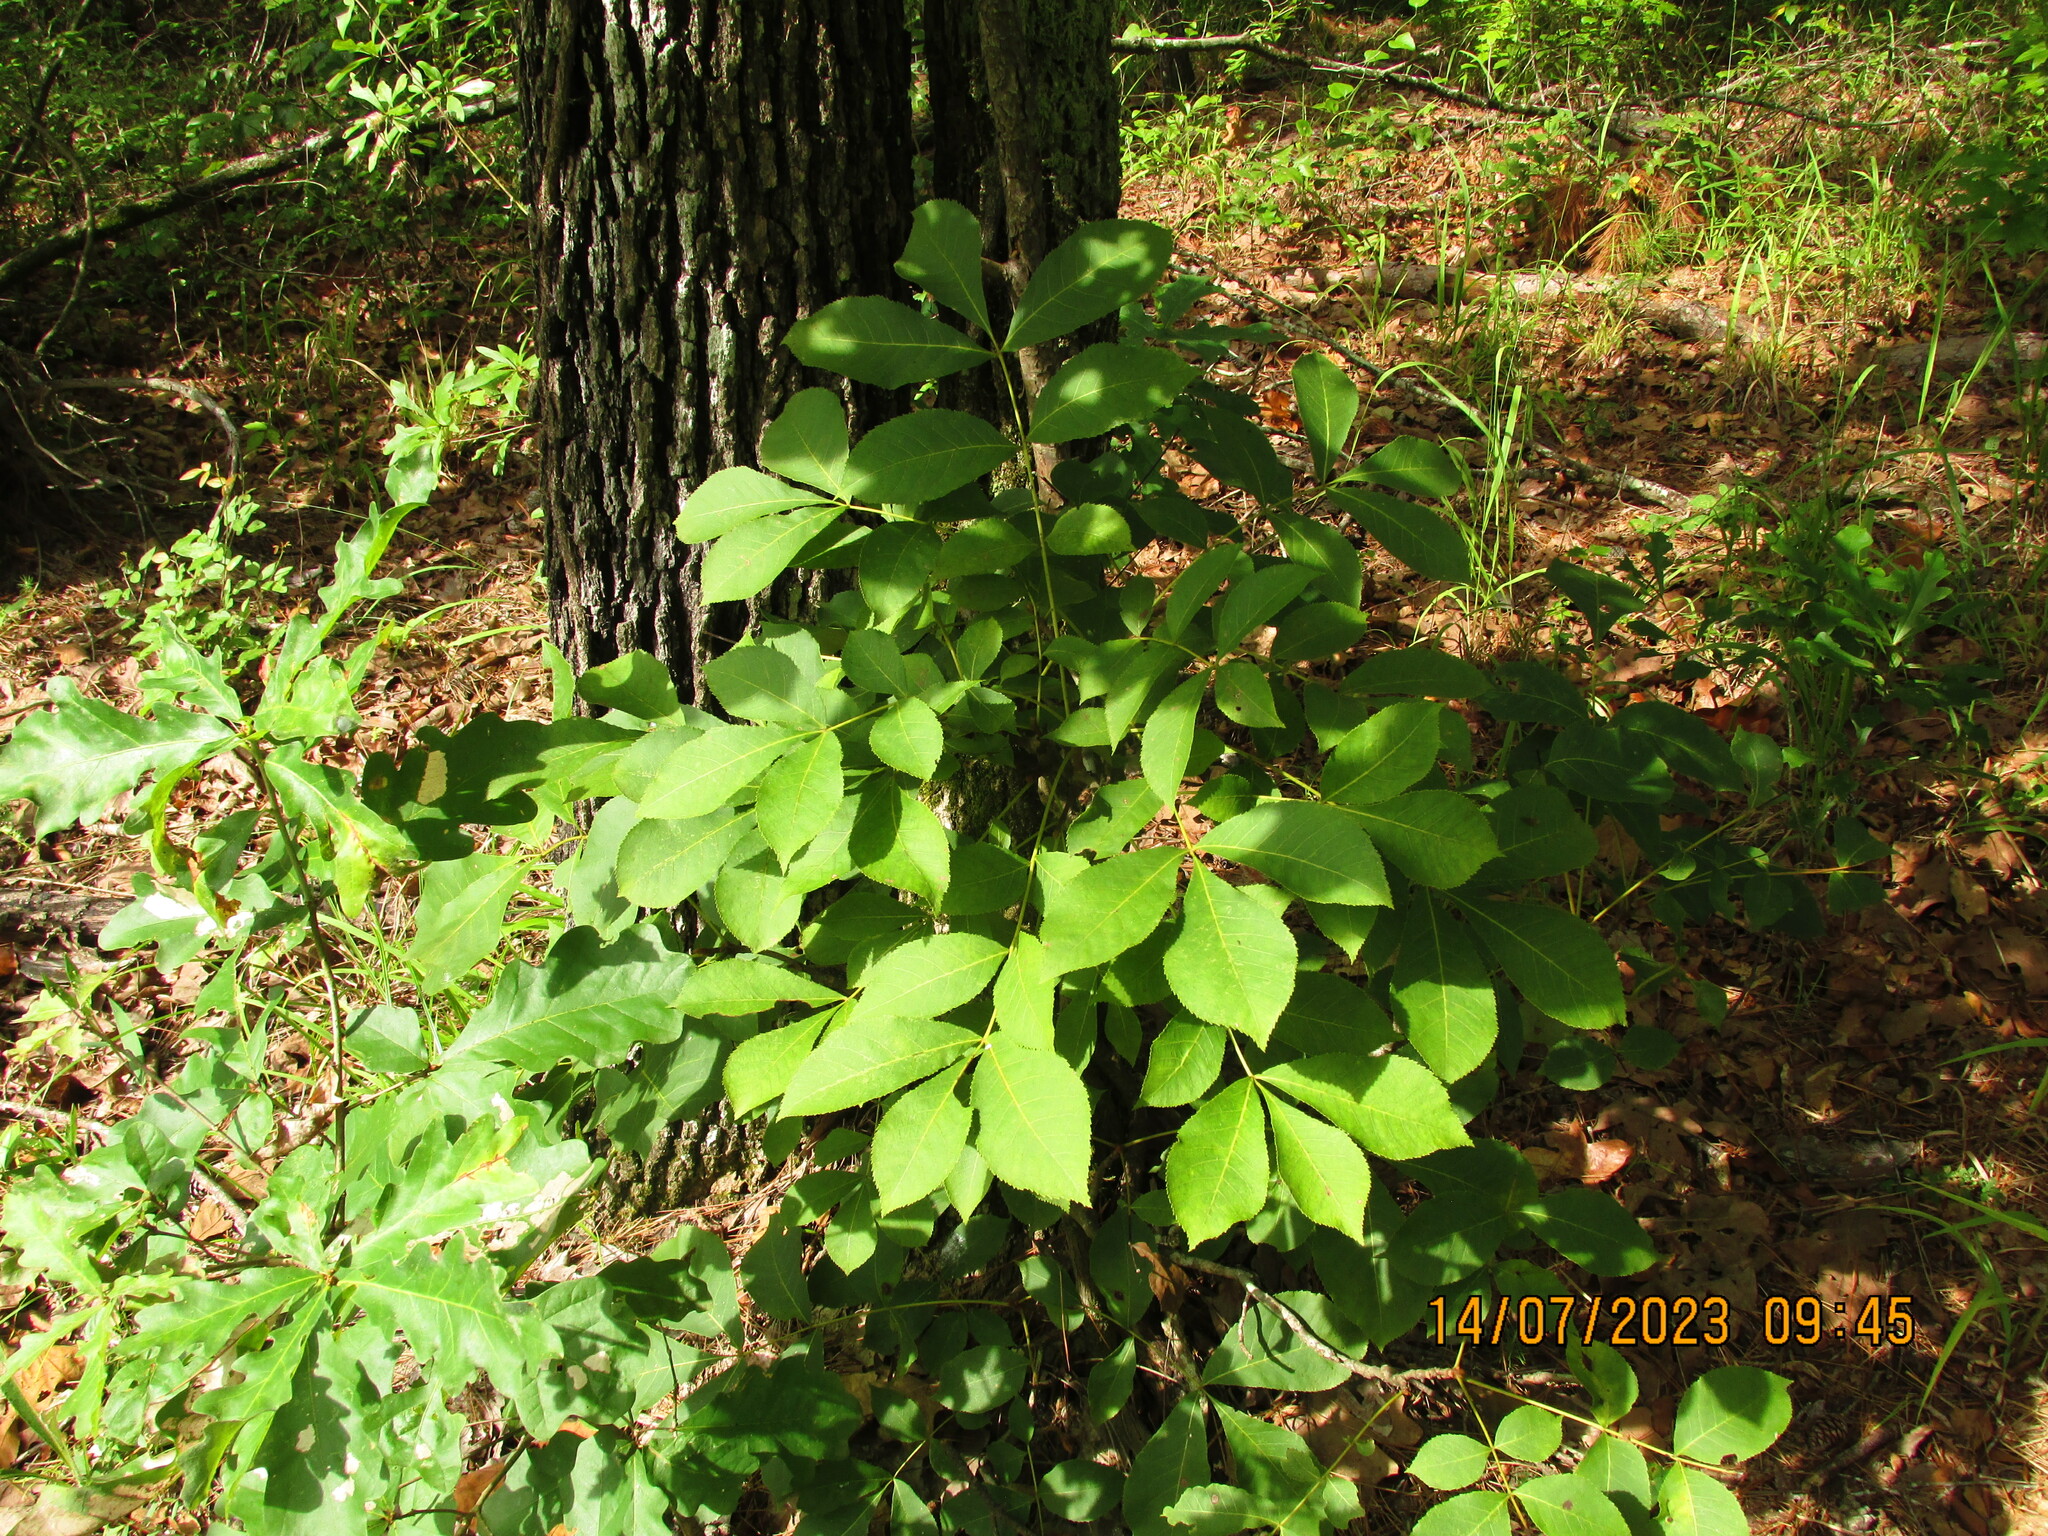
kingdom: Plantae
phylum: Tracheophyta
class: Magnoliopsida
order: Fagales
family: Juglandaceae
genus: Carya
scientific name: Carya texana
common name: Black hickory
